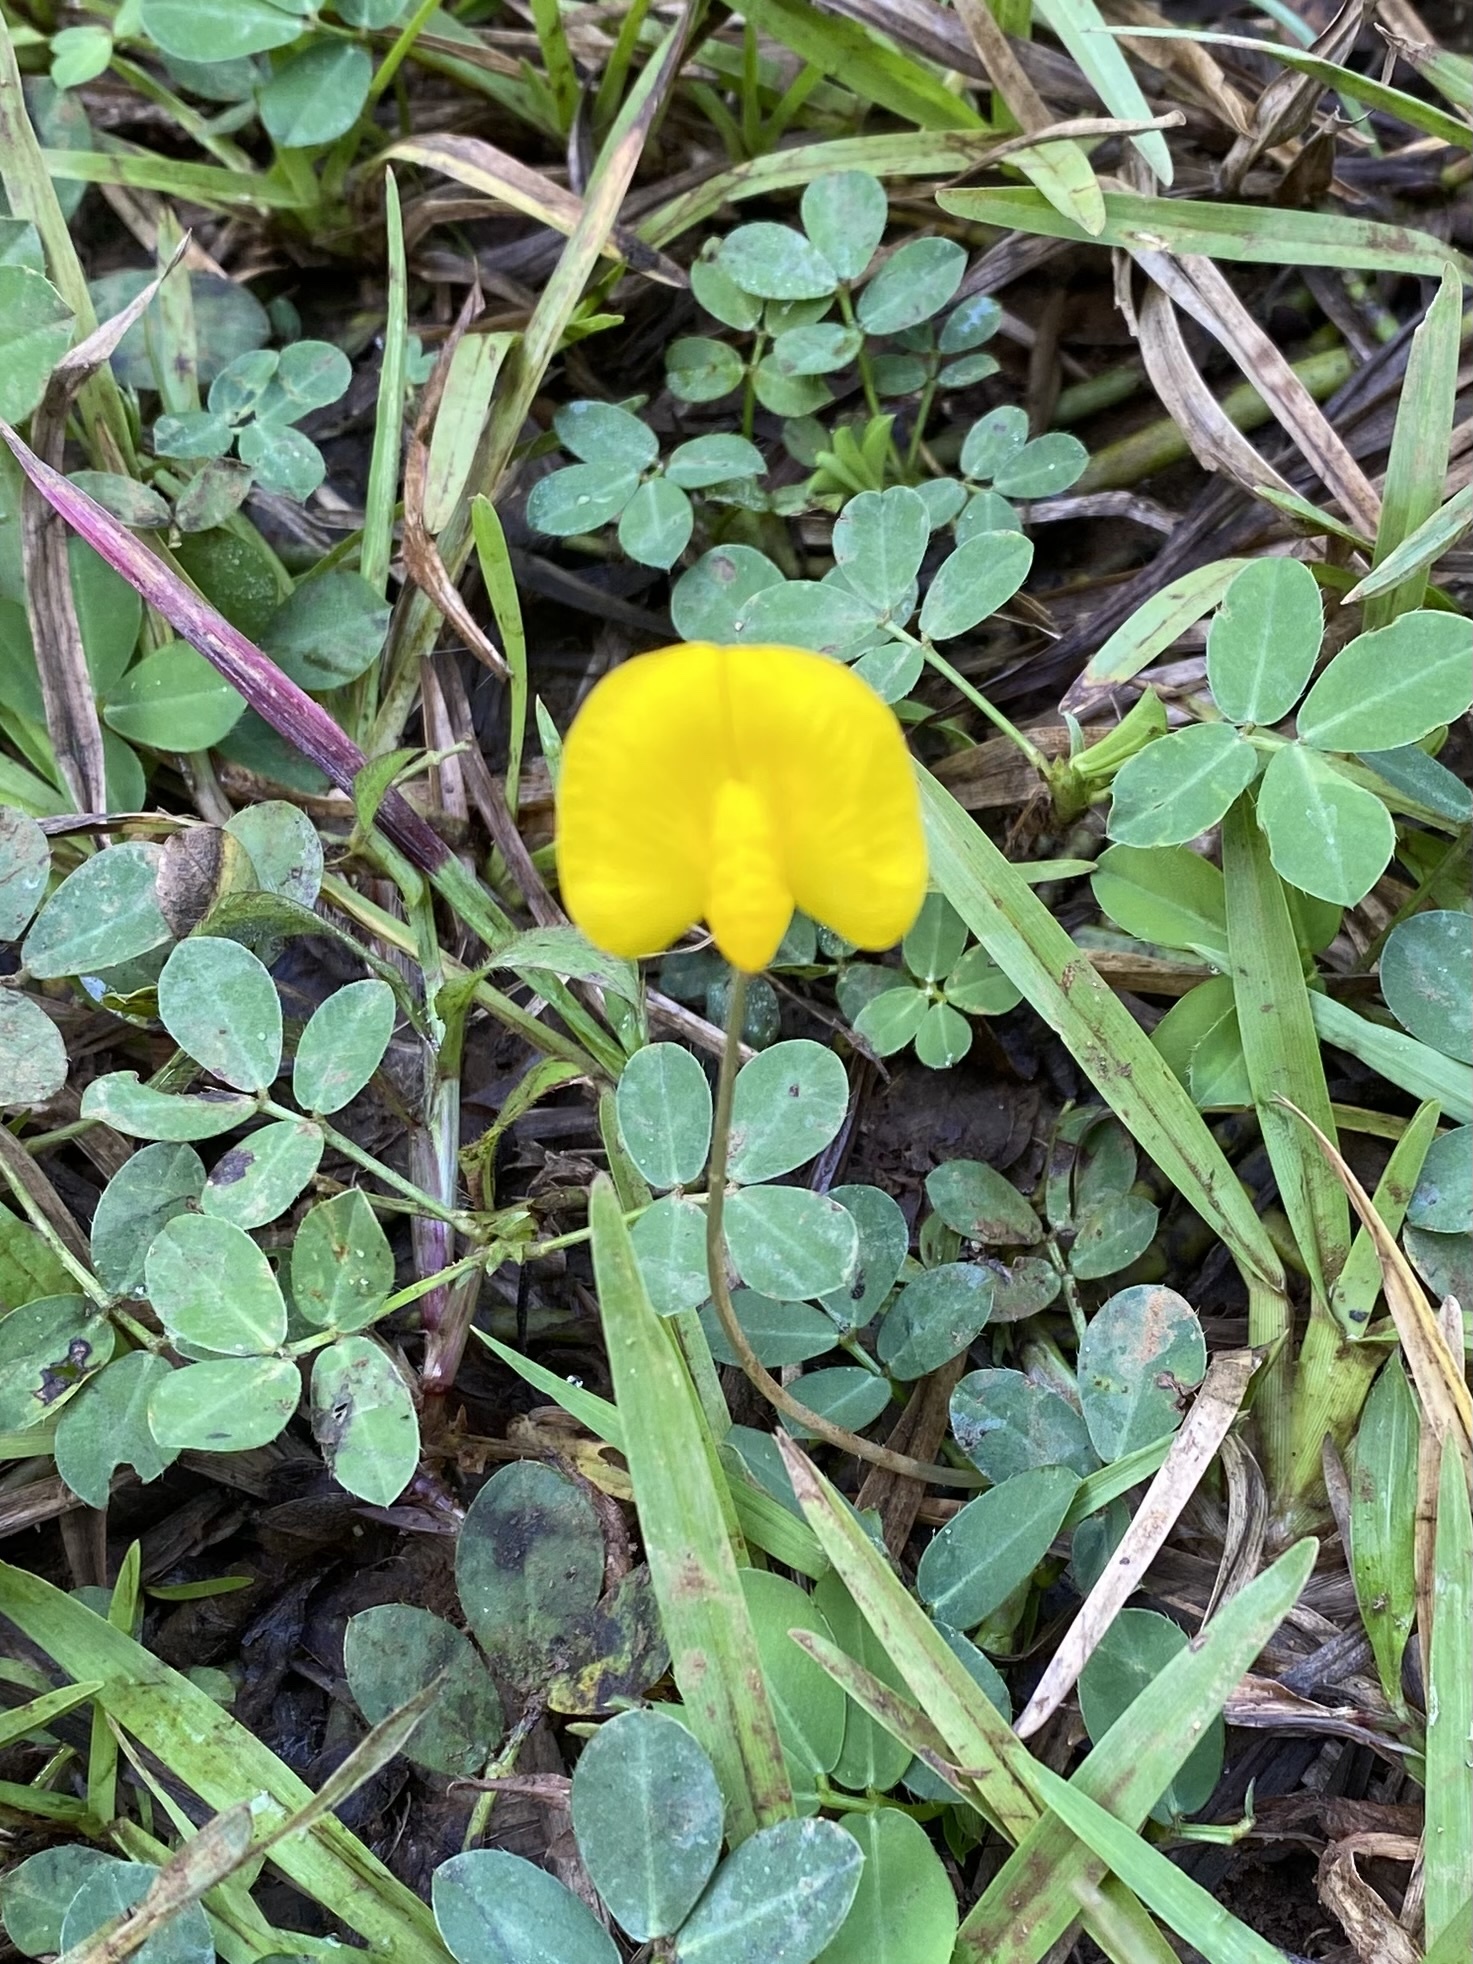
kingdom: Plantae
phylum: Tracheophyta
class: Magnoliopsida
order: Fabales
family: Fabaceae
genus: Arachis
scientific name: Arachis pintoi
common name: Pinto peanut
